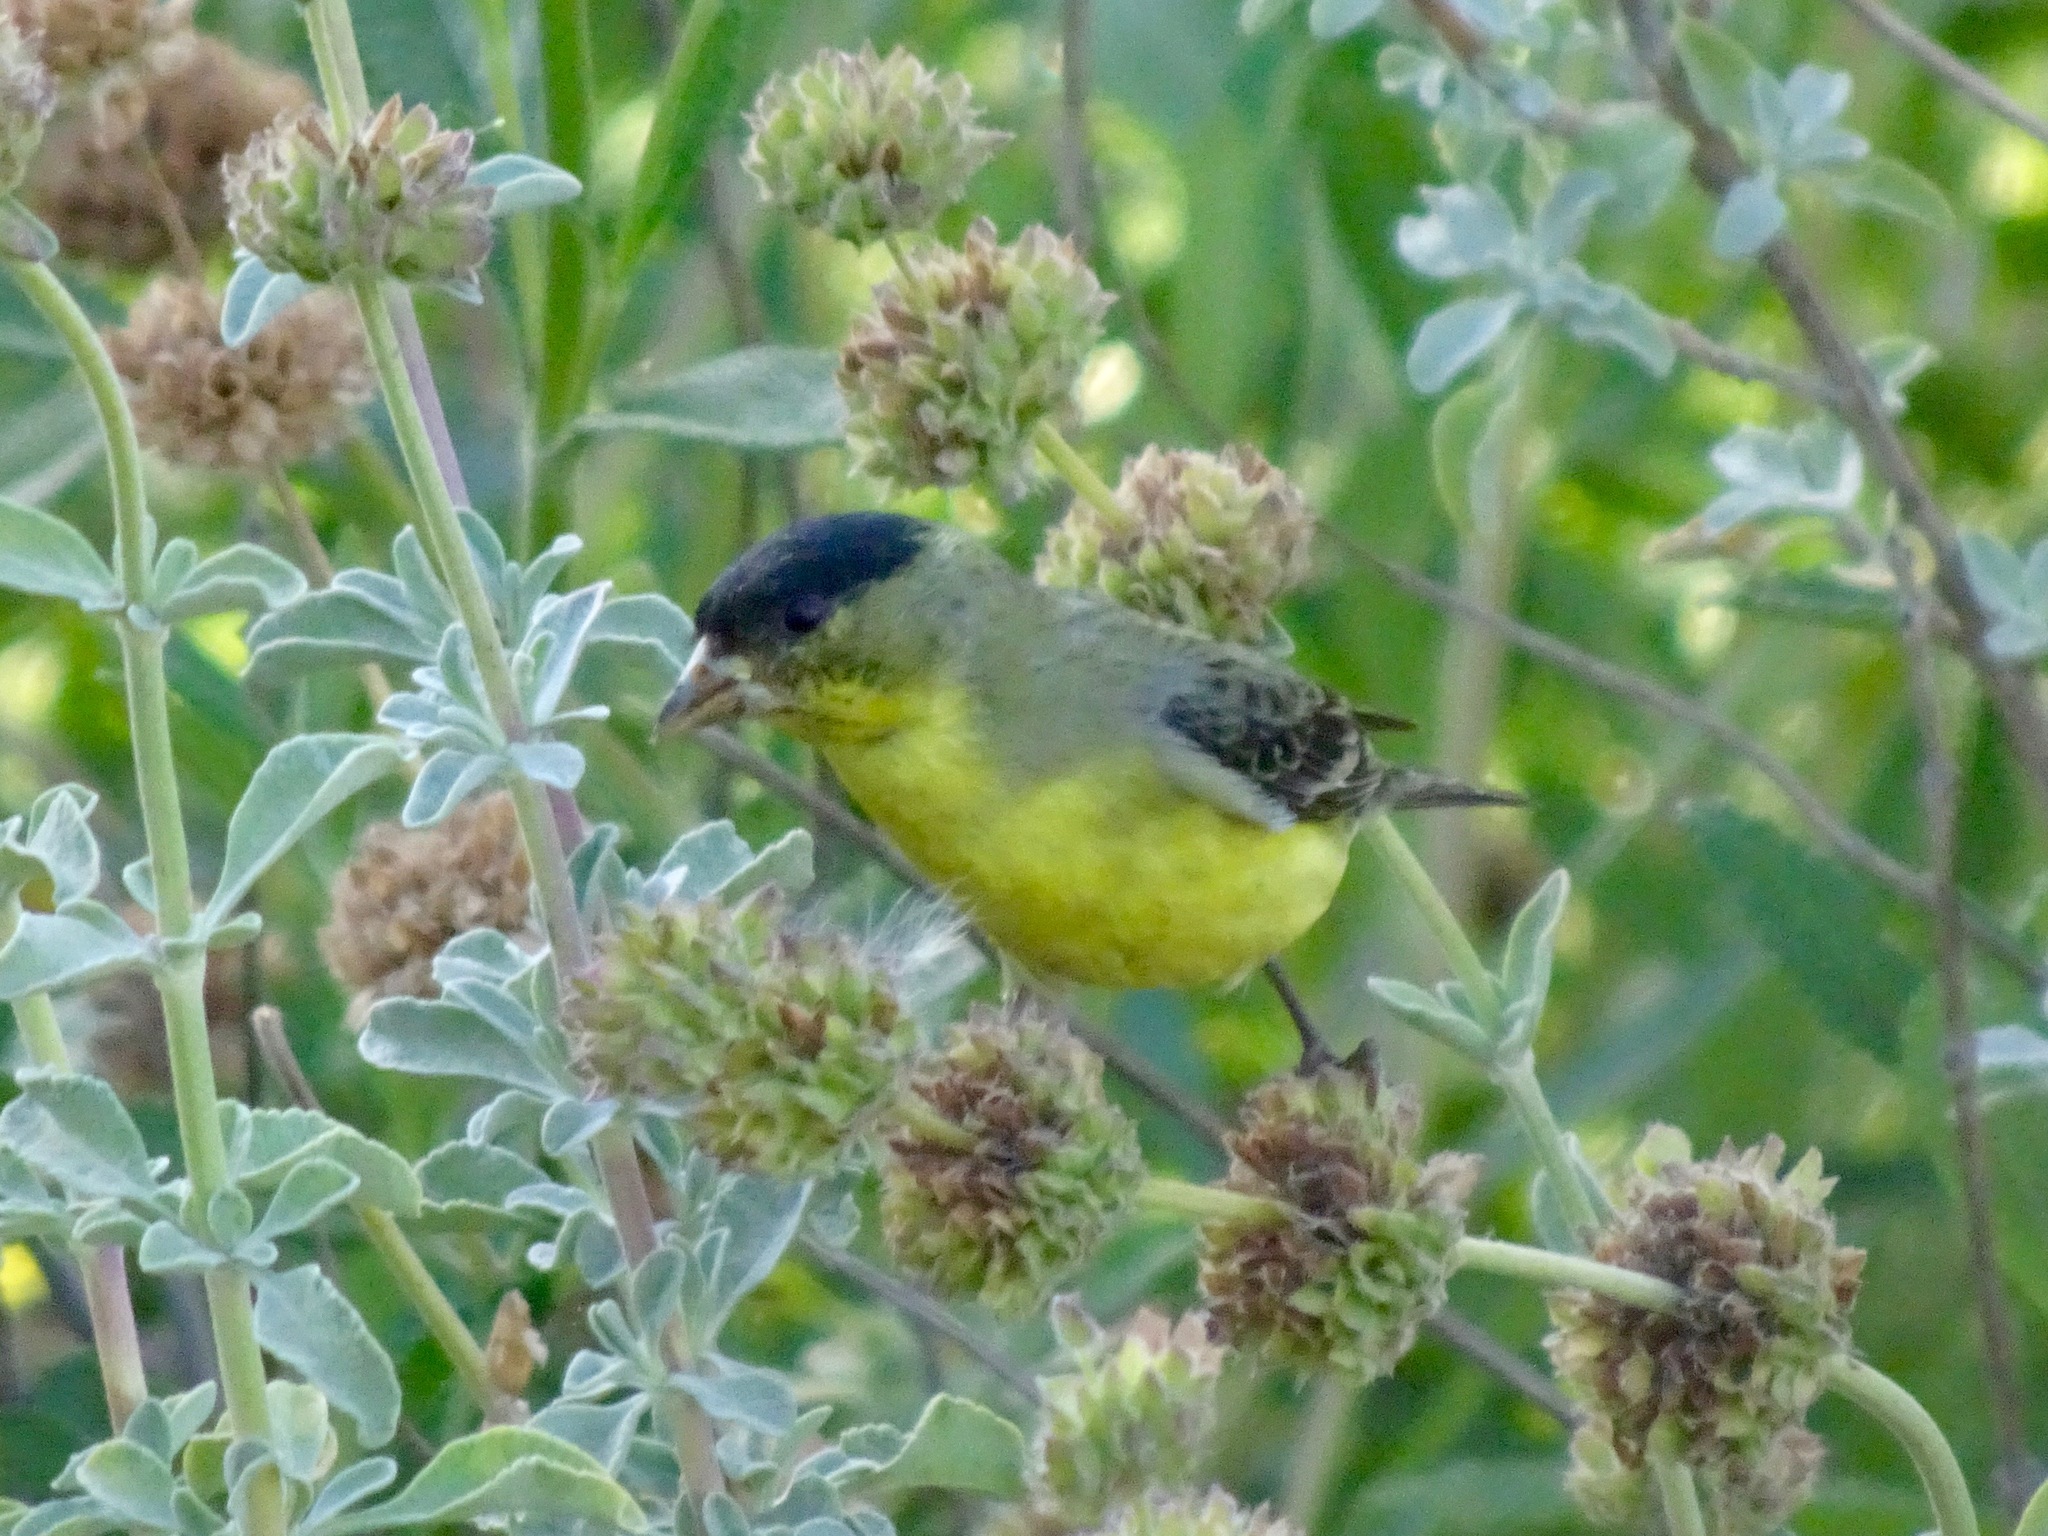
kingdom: Animalia
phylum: Chordata
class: Aves
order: Passeriformes
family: Fringillidae
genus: Spinus
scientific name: Spinus psaltria
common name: Lesser goldfinch
